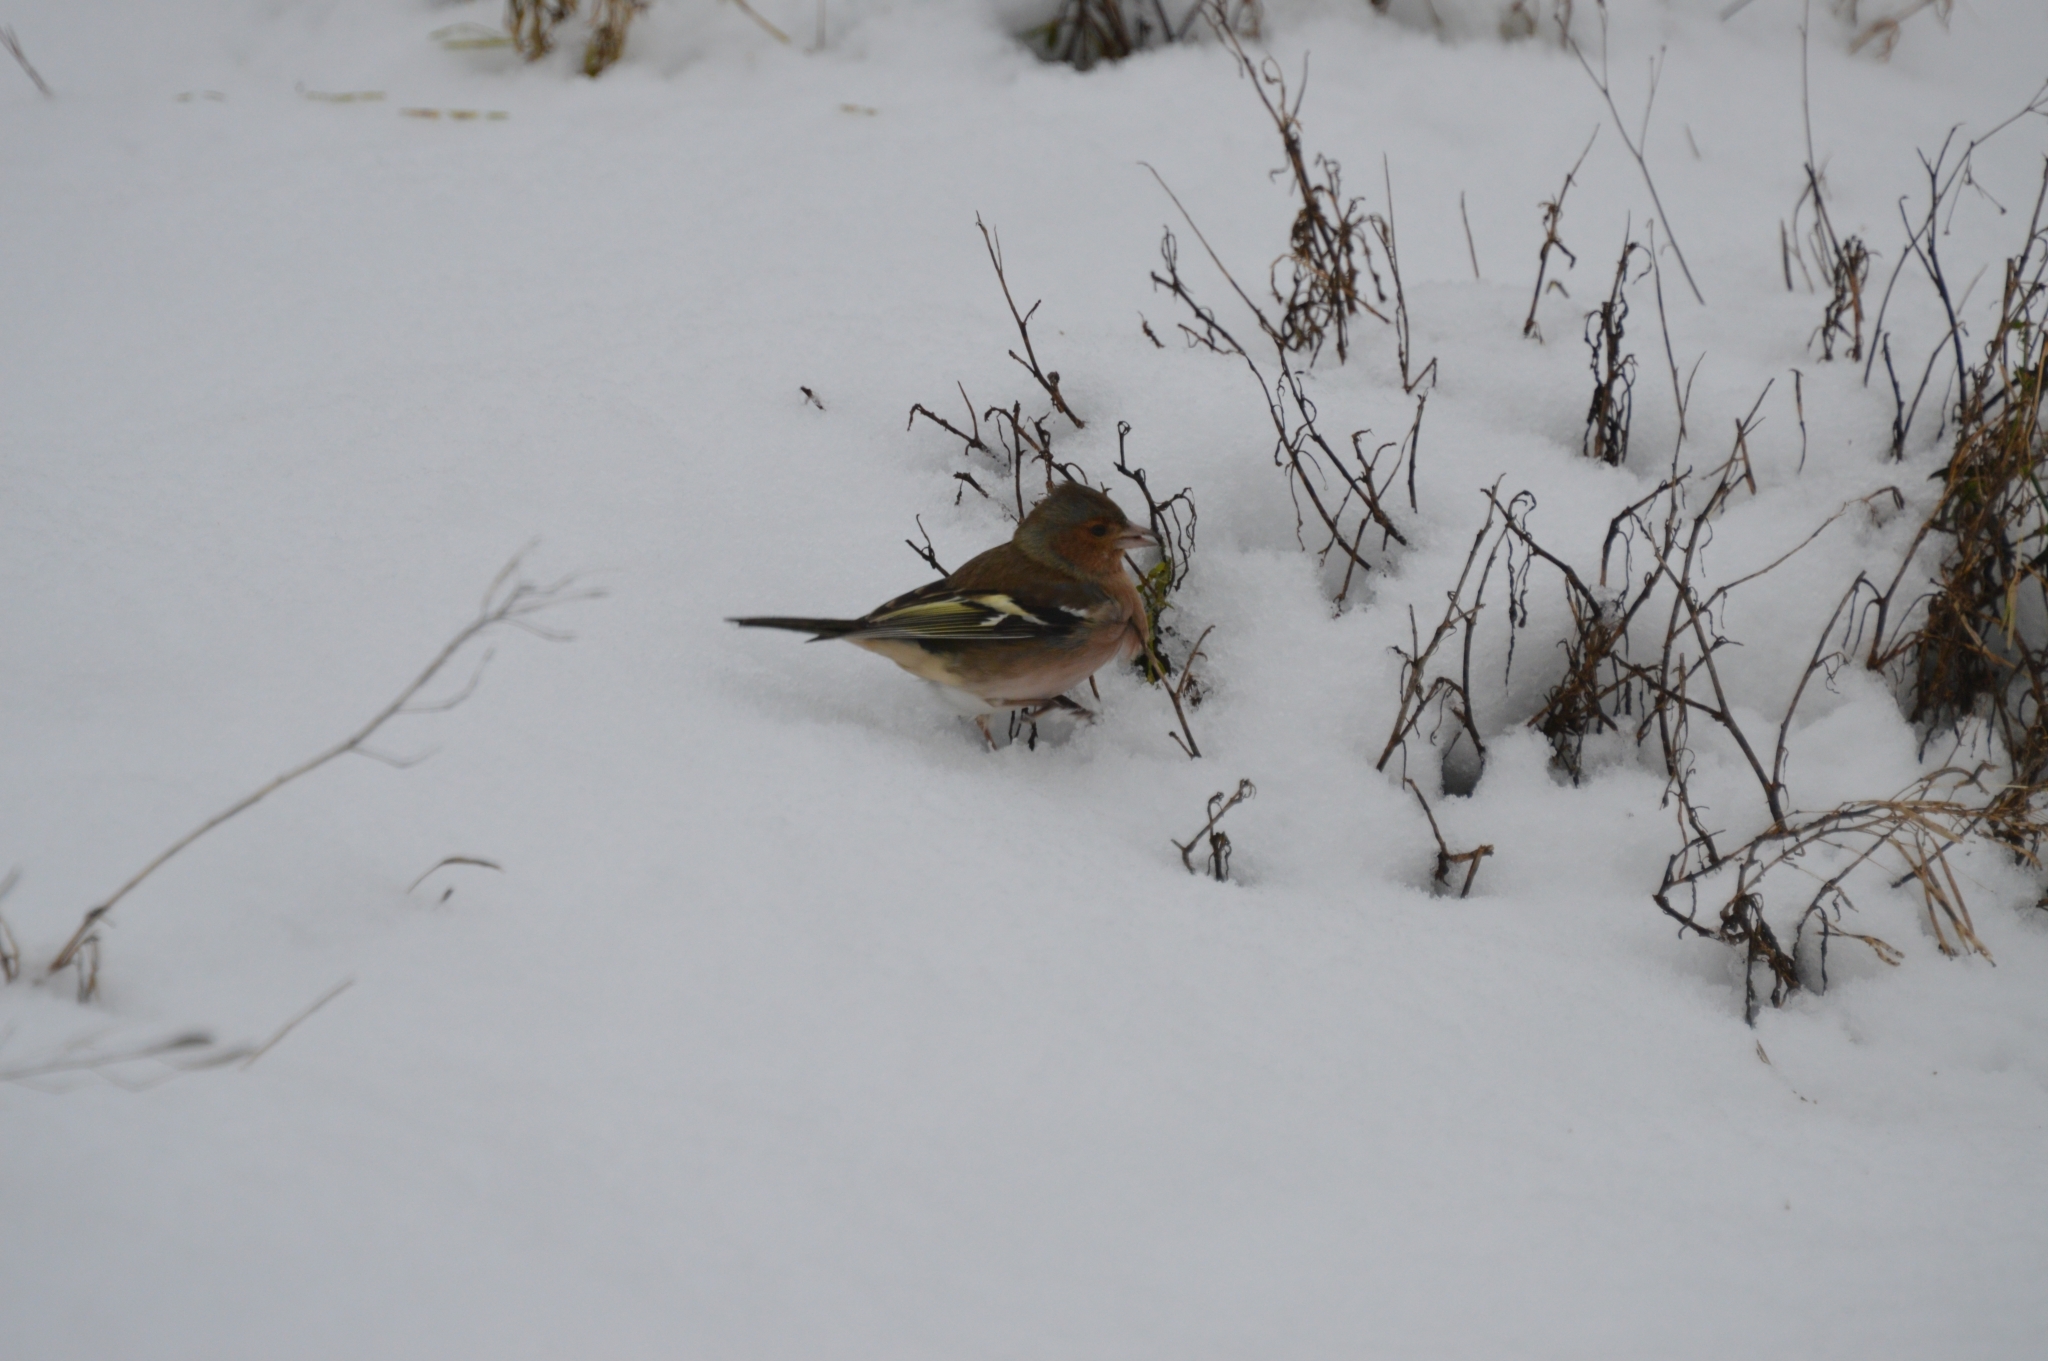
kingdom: Animalia
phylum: Chordata
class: Aves
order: Passeriformes
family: Fringillidae
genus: Fringilla
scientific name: Fringilla coelebs
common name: Common chaffinch
